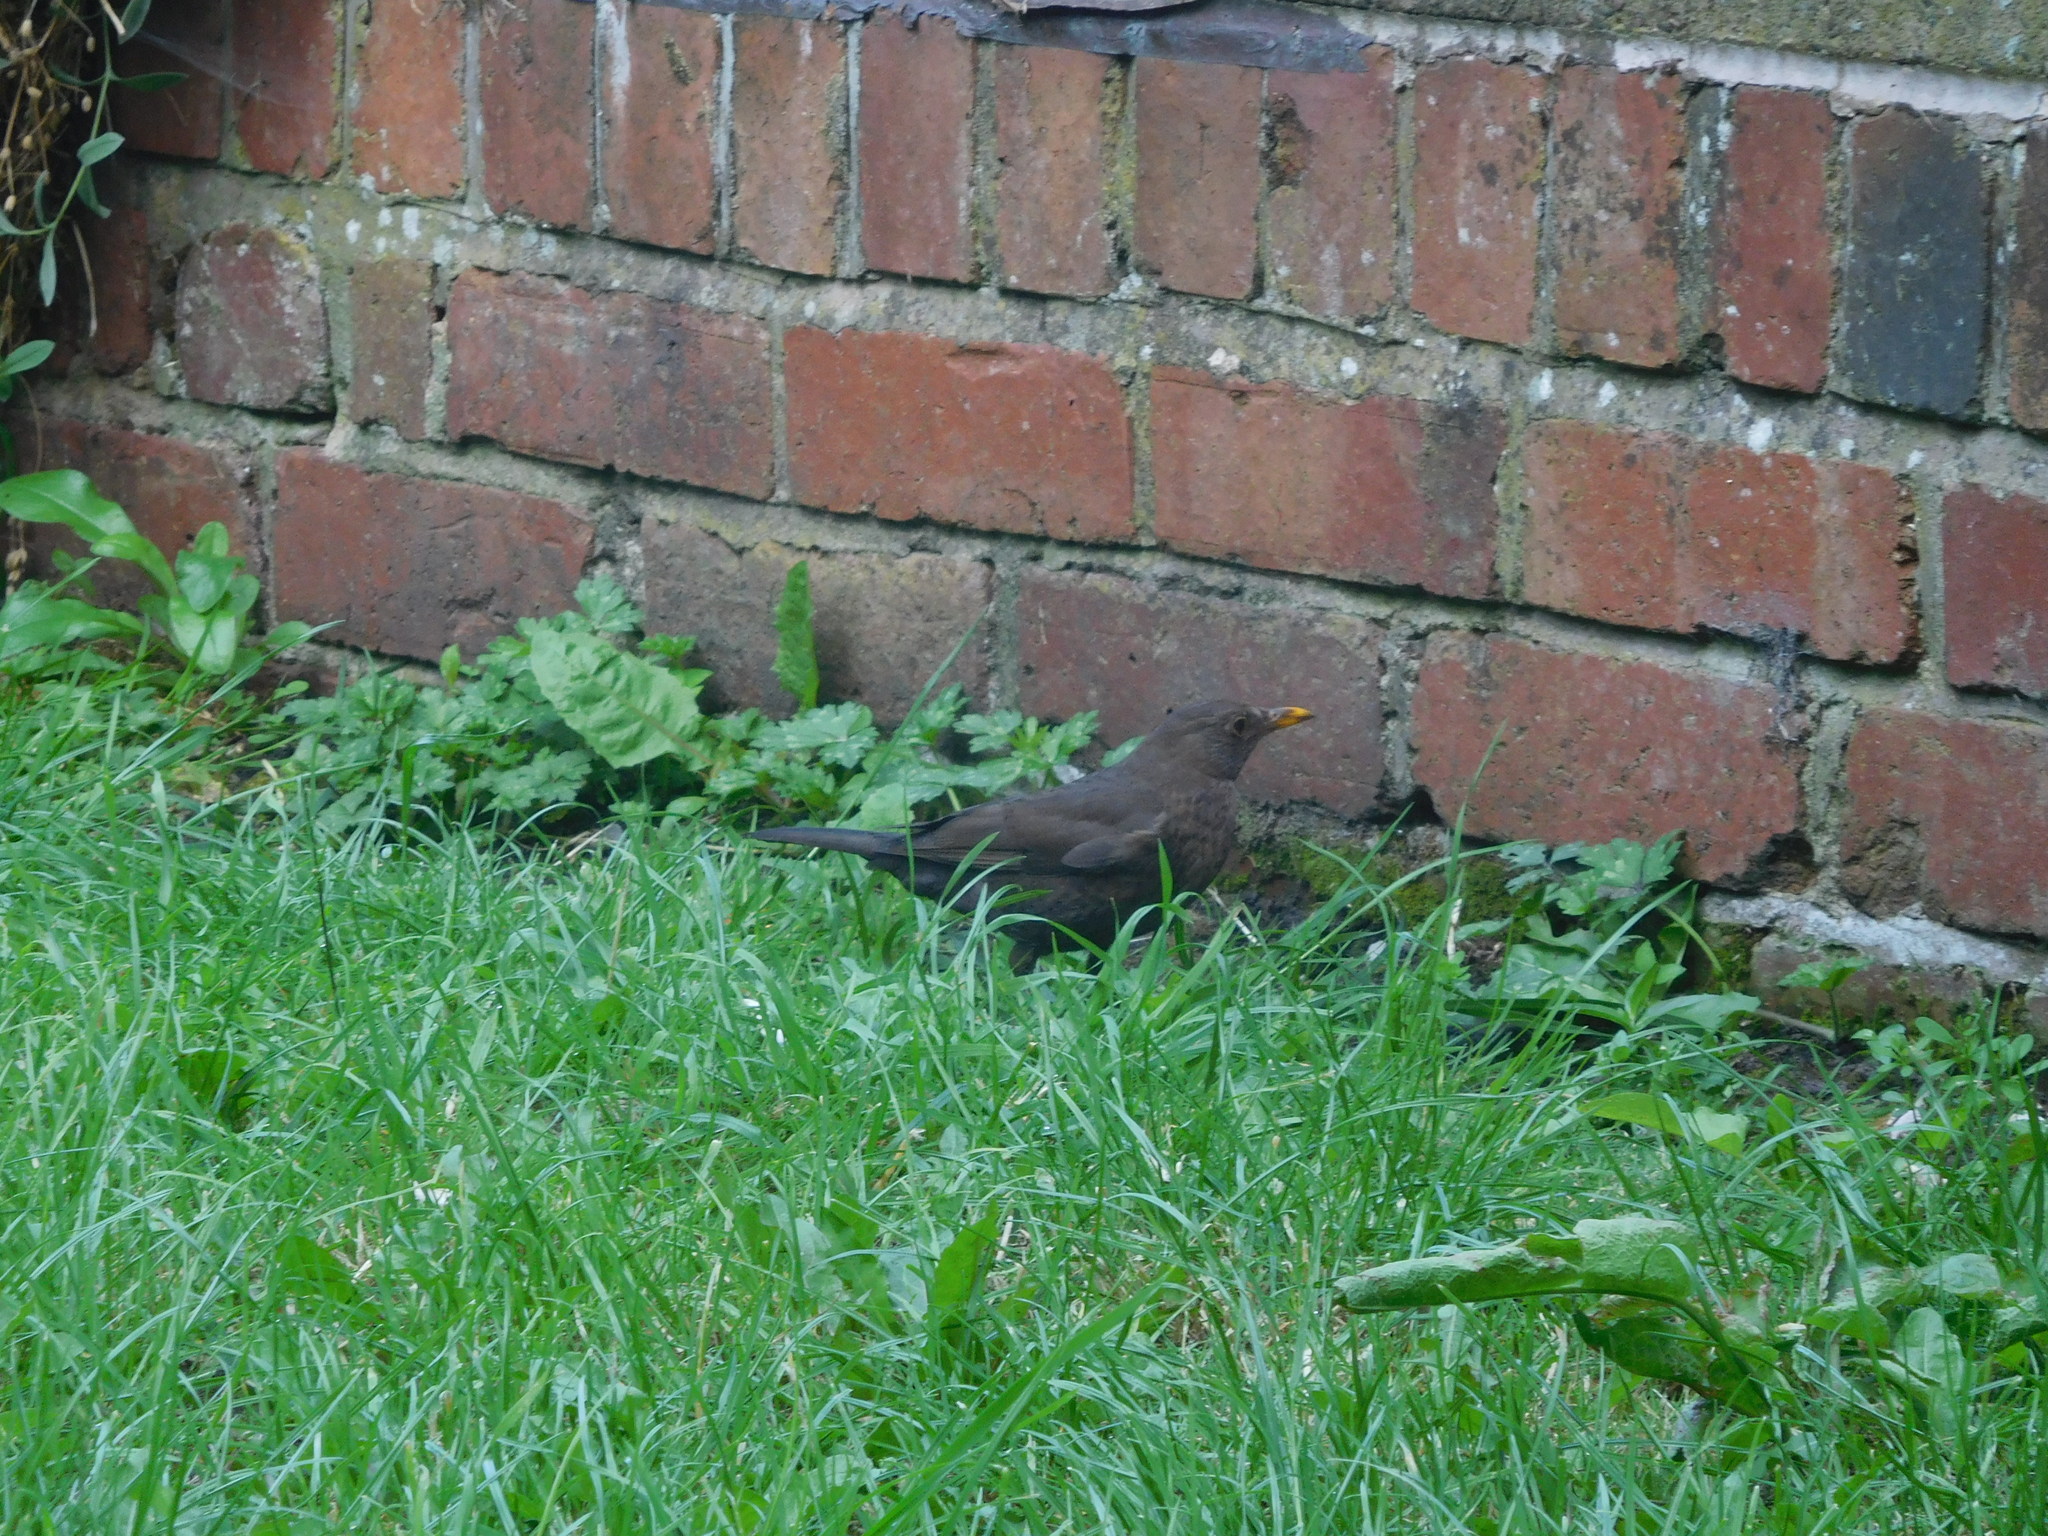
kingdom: Animalia
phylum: Chordata
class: Aves
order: Passeriformes
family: Turdidae
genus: Turdus
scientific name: Turdus merula
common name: Common blackbird
